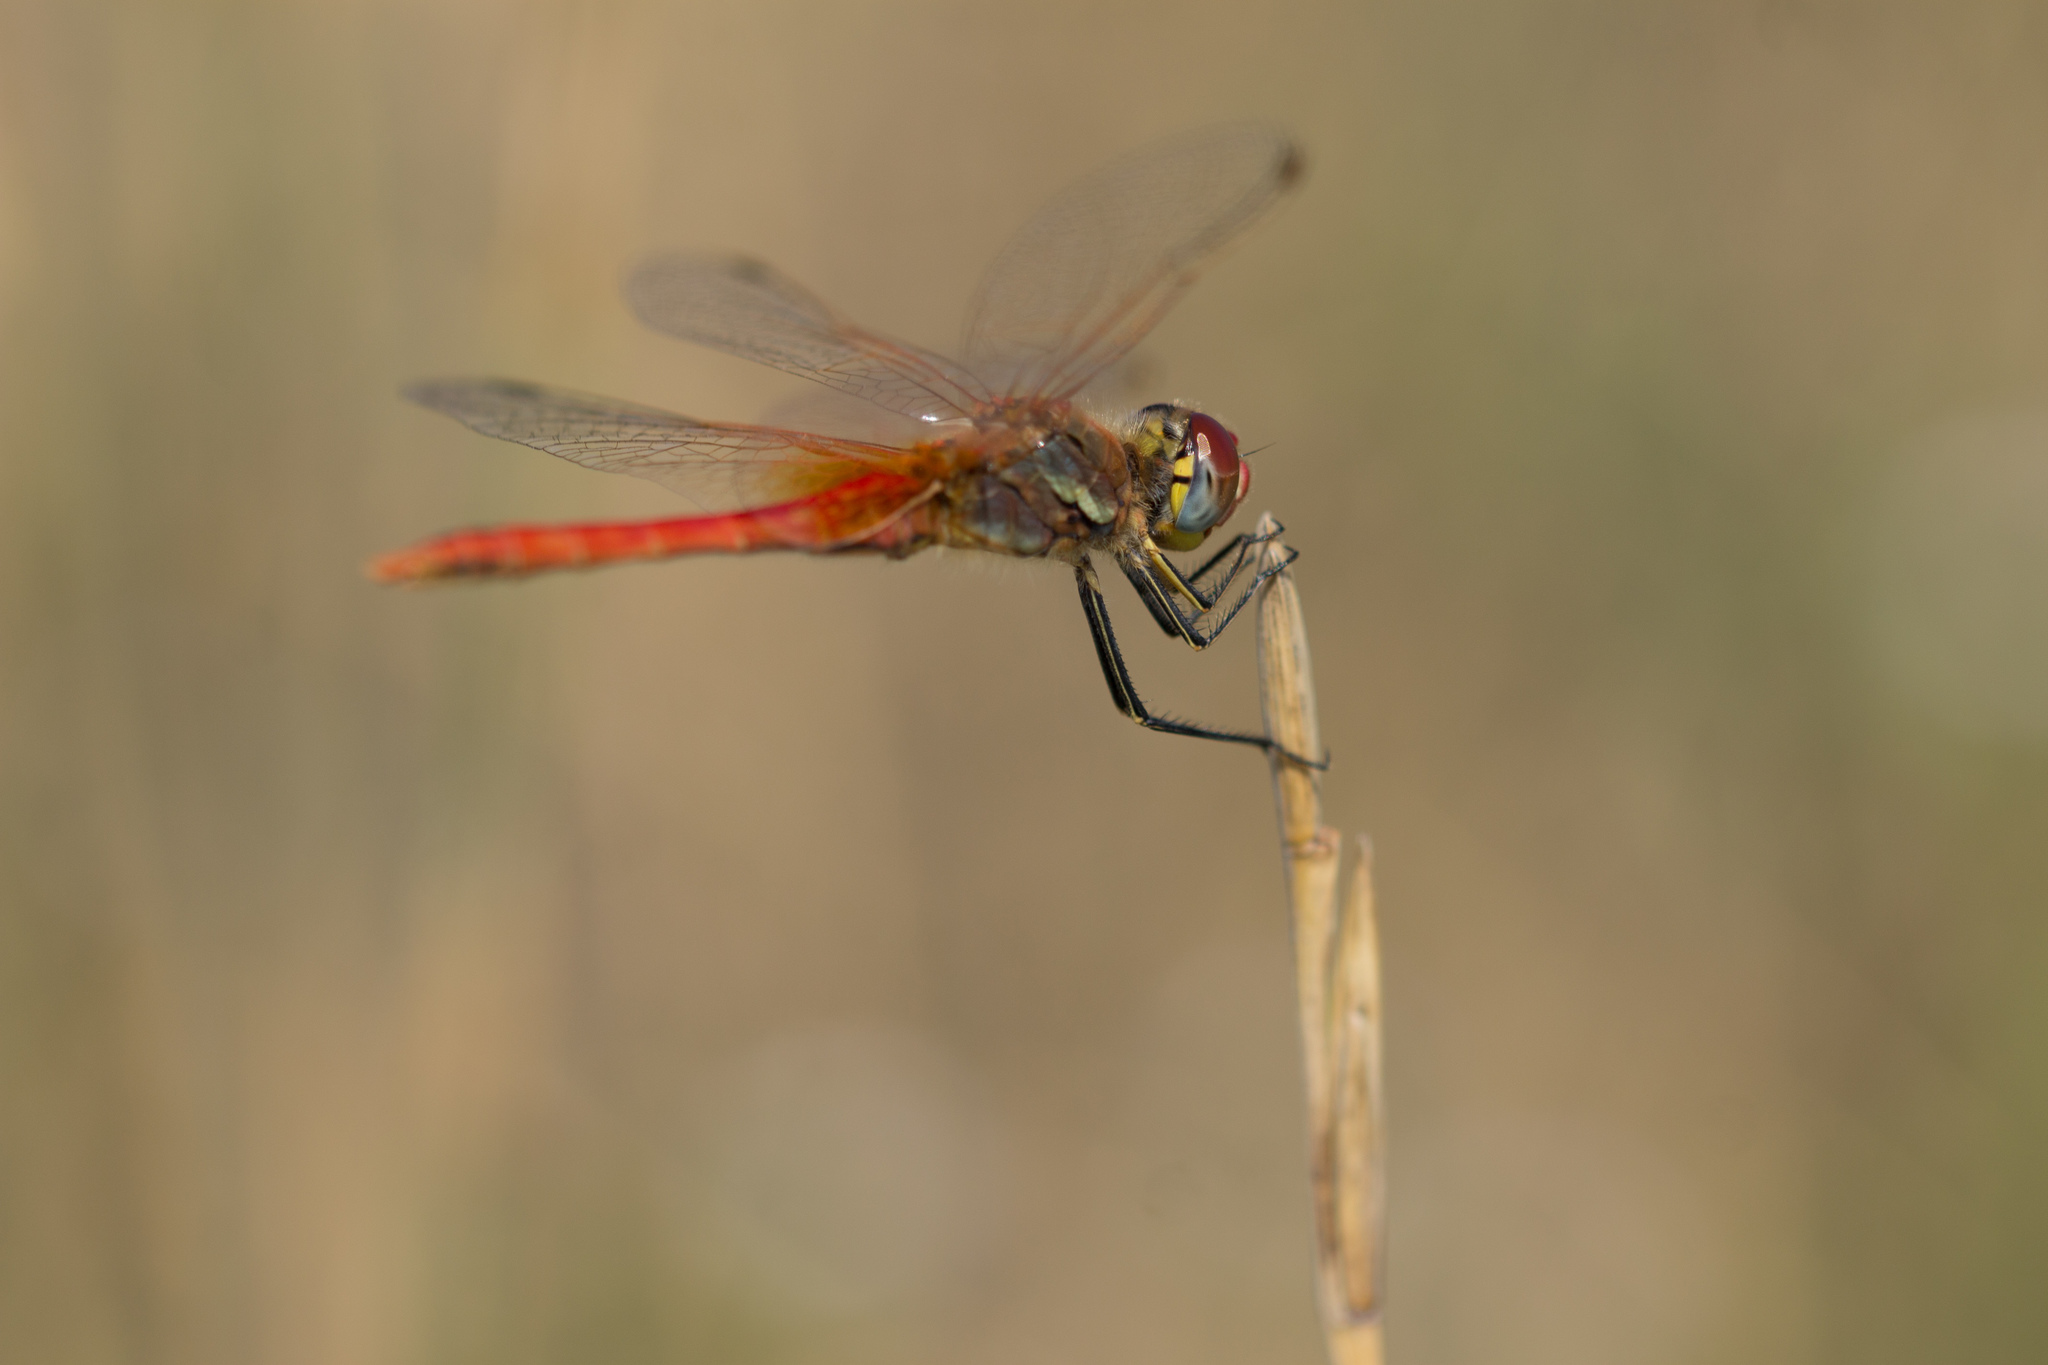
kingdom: Animalia
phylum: Arthropoda
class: Insecta
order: Odonata
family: Libellulidae
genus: Sympetrum
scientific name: Sympetrum fonscolombii
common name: Red-veined darter
